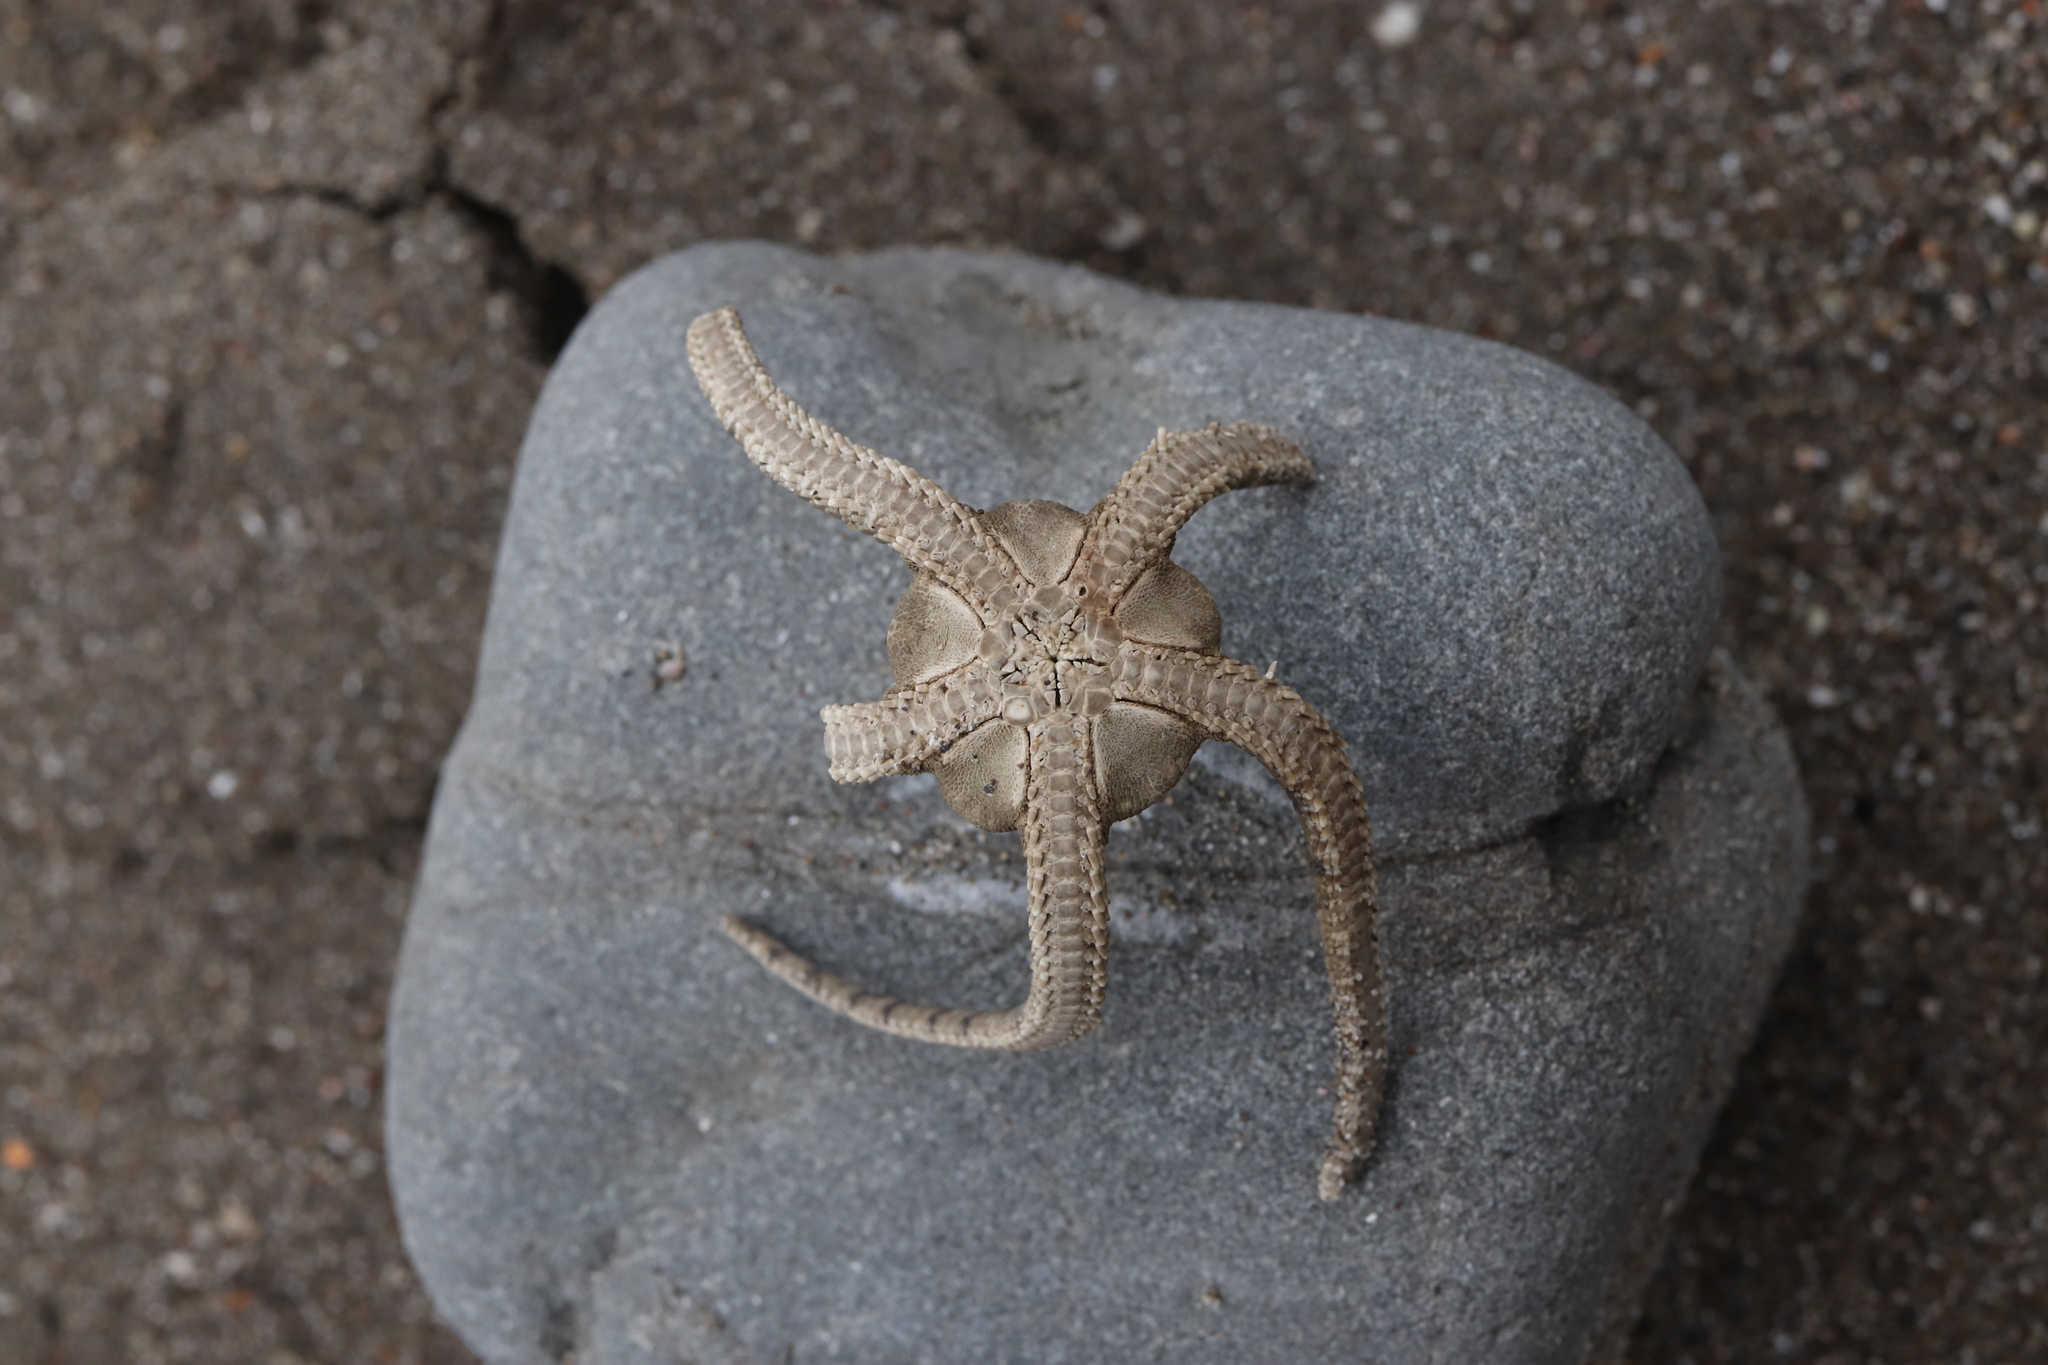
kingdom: Animalia
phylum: Echinodermata
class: Ophiuroidea
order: Amphilepidida
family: Hemieuryalidae
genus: Ophioplocus
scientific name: Ophioplocus imbricatus
